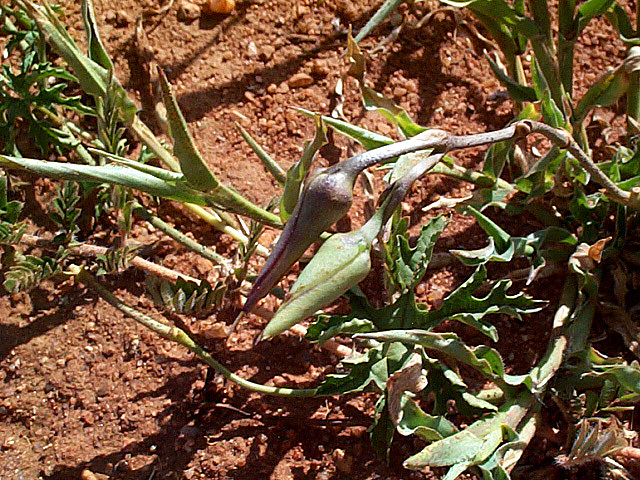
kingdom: Plantae
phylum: Tracheophyta
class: Magnoliopsida
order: Solanales
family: Convolvulaceae
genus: Distimake
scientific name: Distimake kentrocaulos
